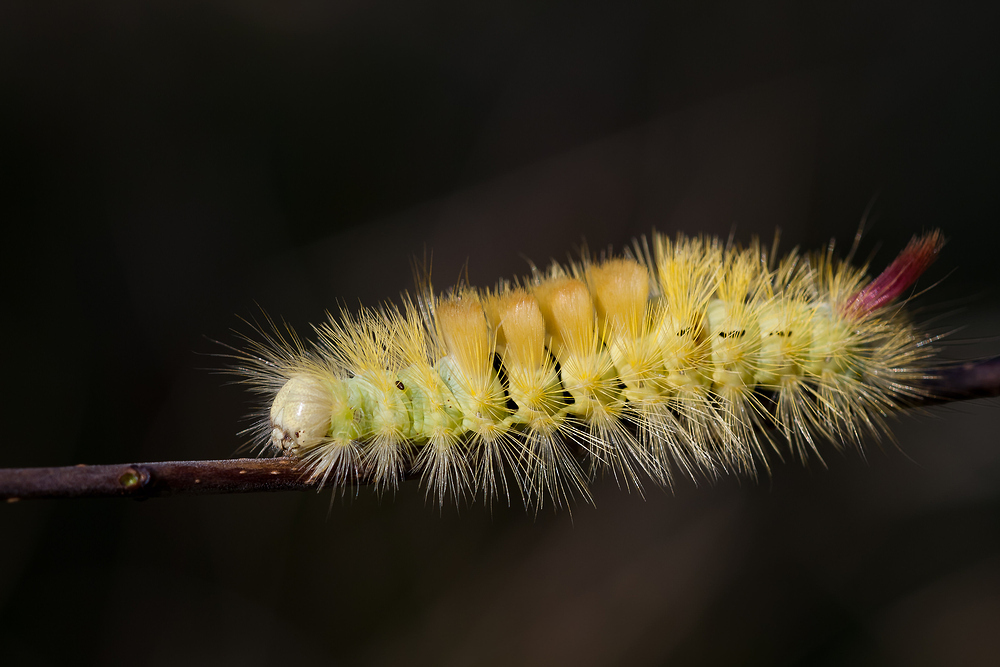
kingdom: Animalia
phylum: Arthropoda
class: Insecta
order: Lepidoptera
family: Erebidae
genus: Calliteara
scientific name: Calliteara pudibunda
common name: Pale tussock
